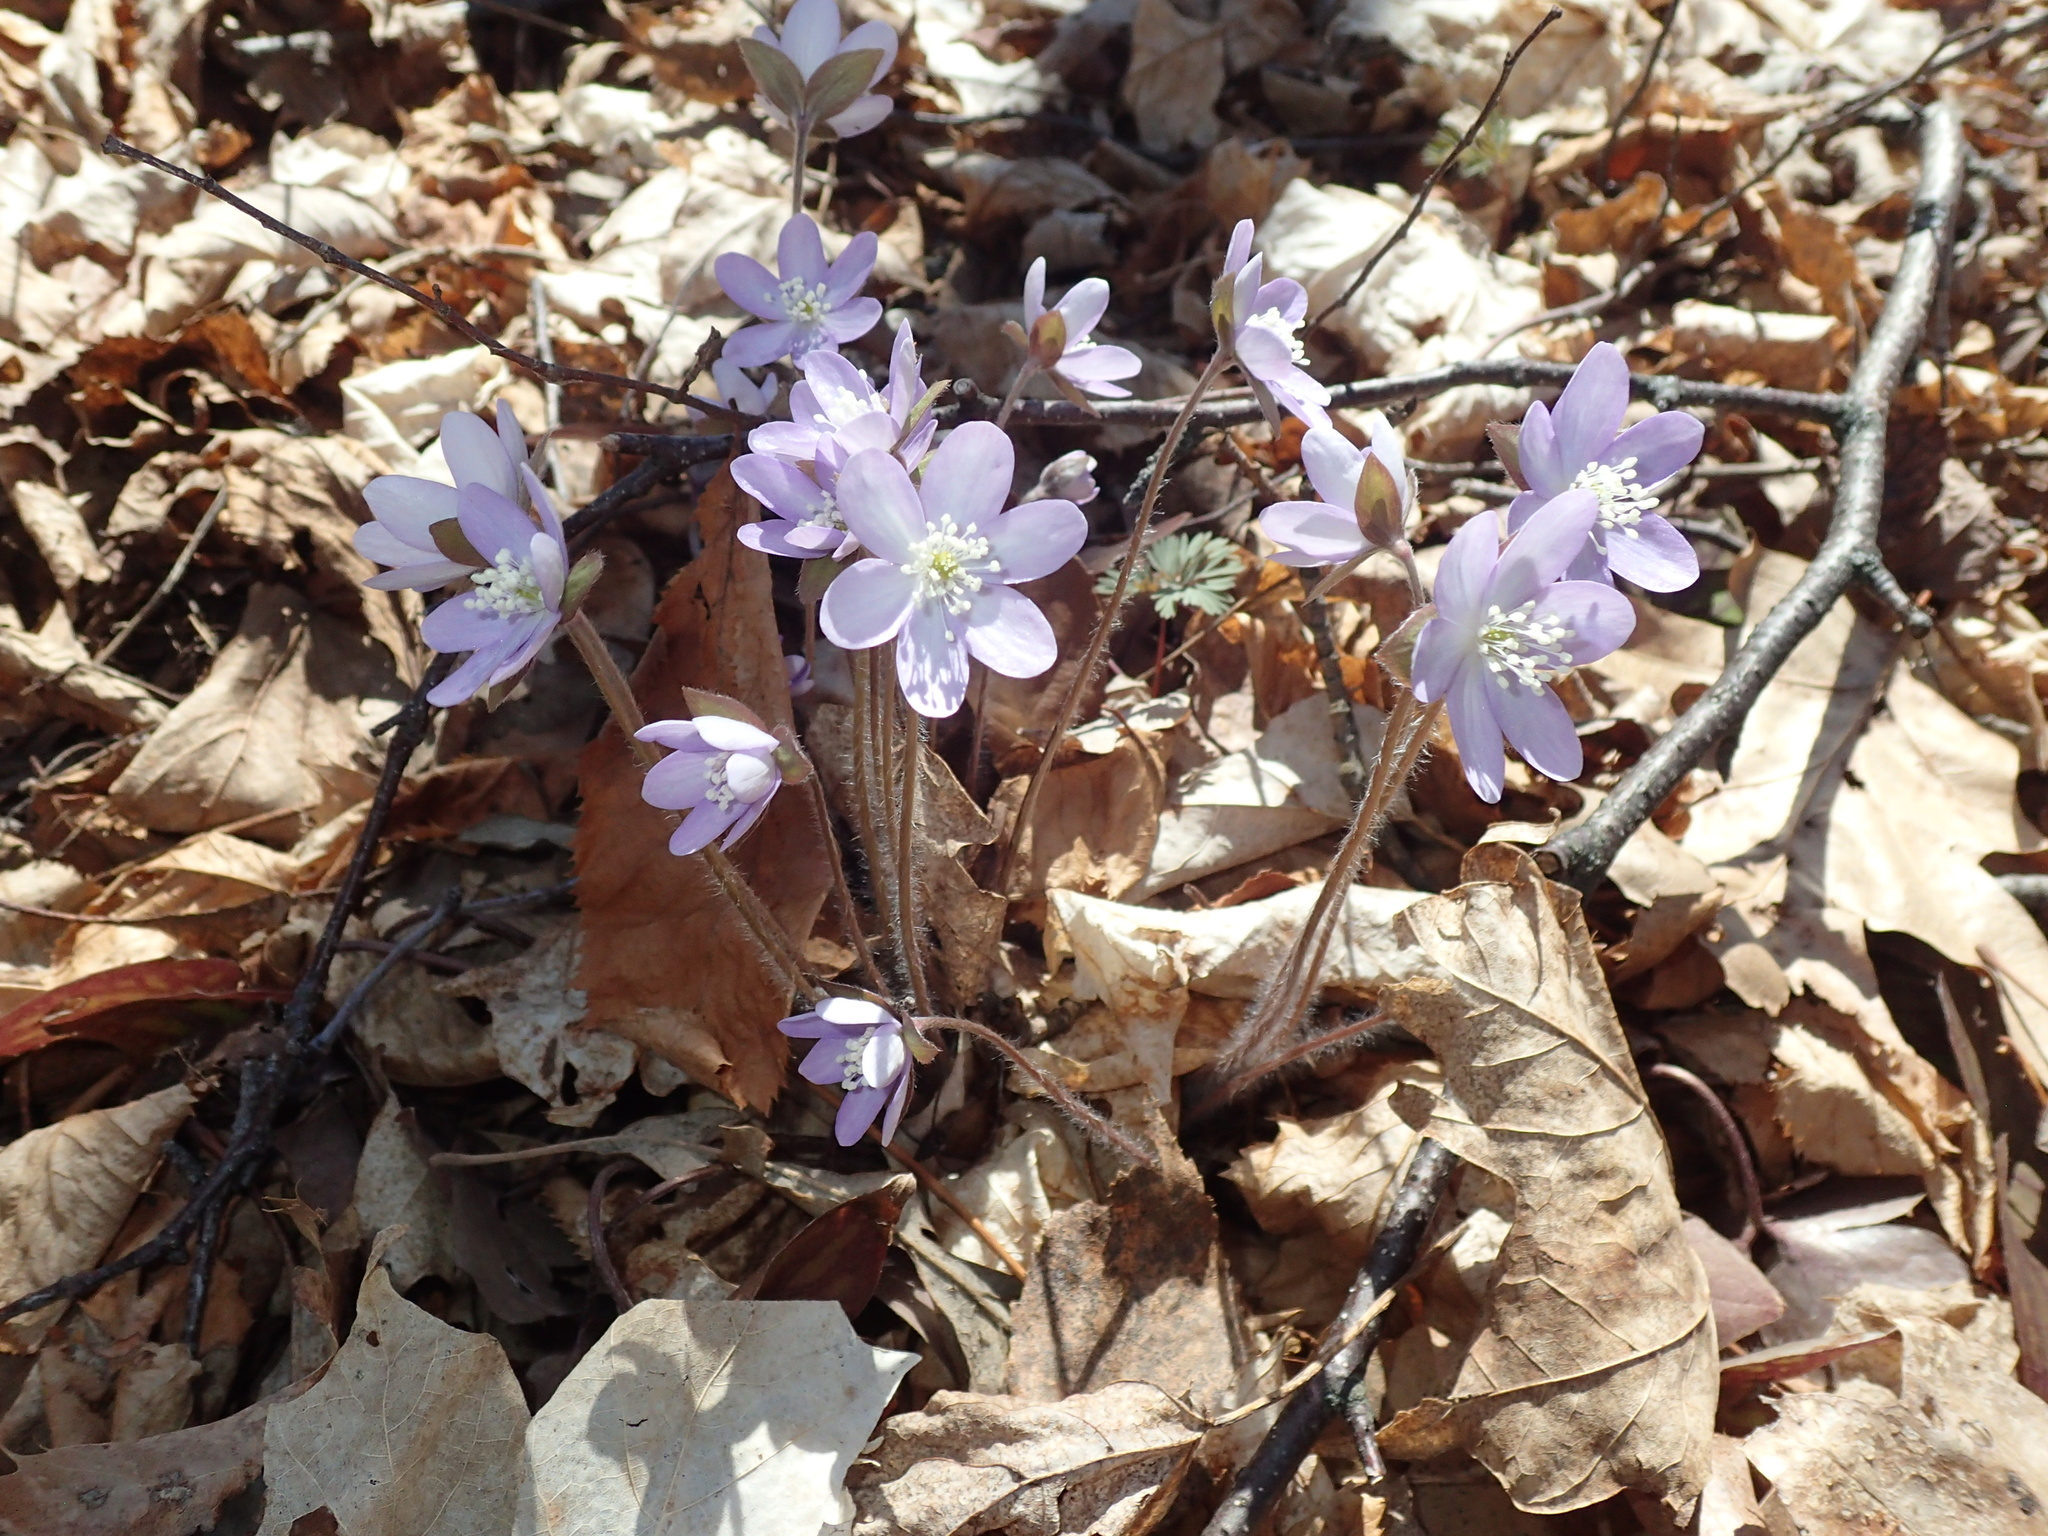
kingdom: Plantae
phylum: Tracheophyta
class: Magnoliopsida
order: Ranunculales
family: Ranunculaceae
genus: Hepatica
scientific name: Hepatica acutiloba
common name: Sharp-lobed hepatica
